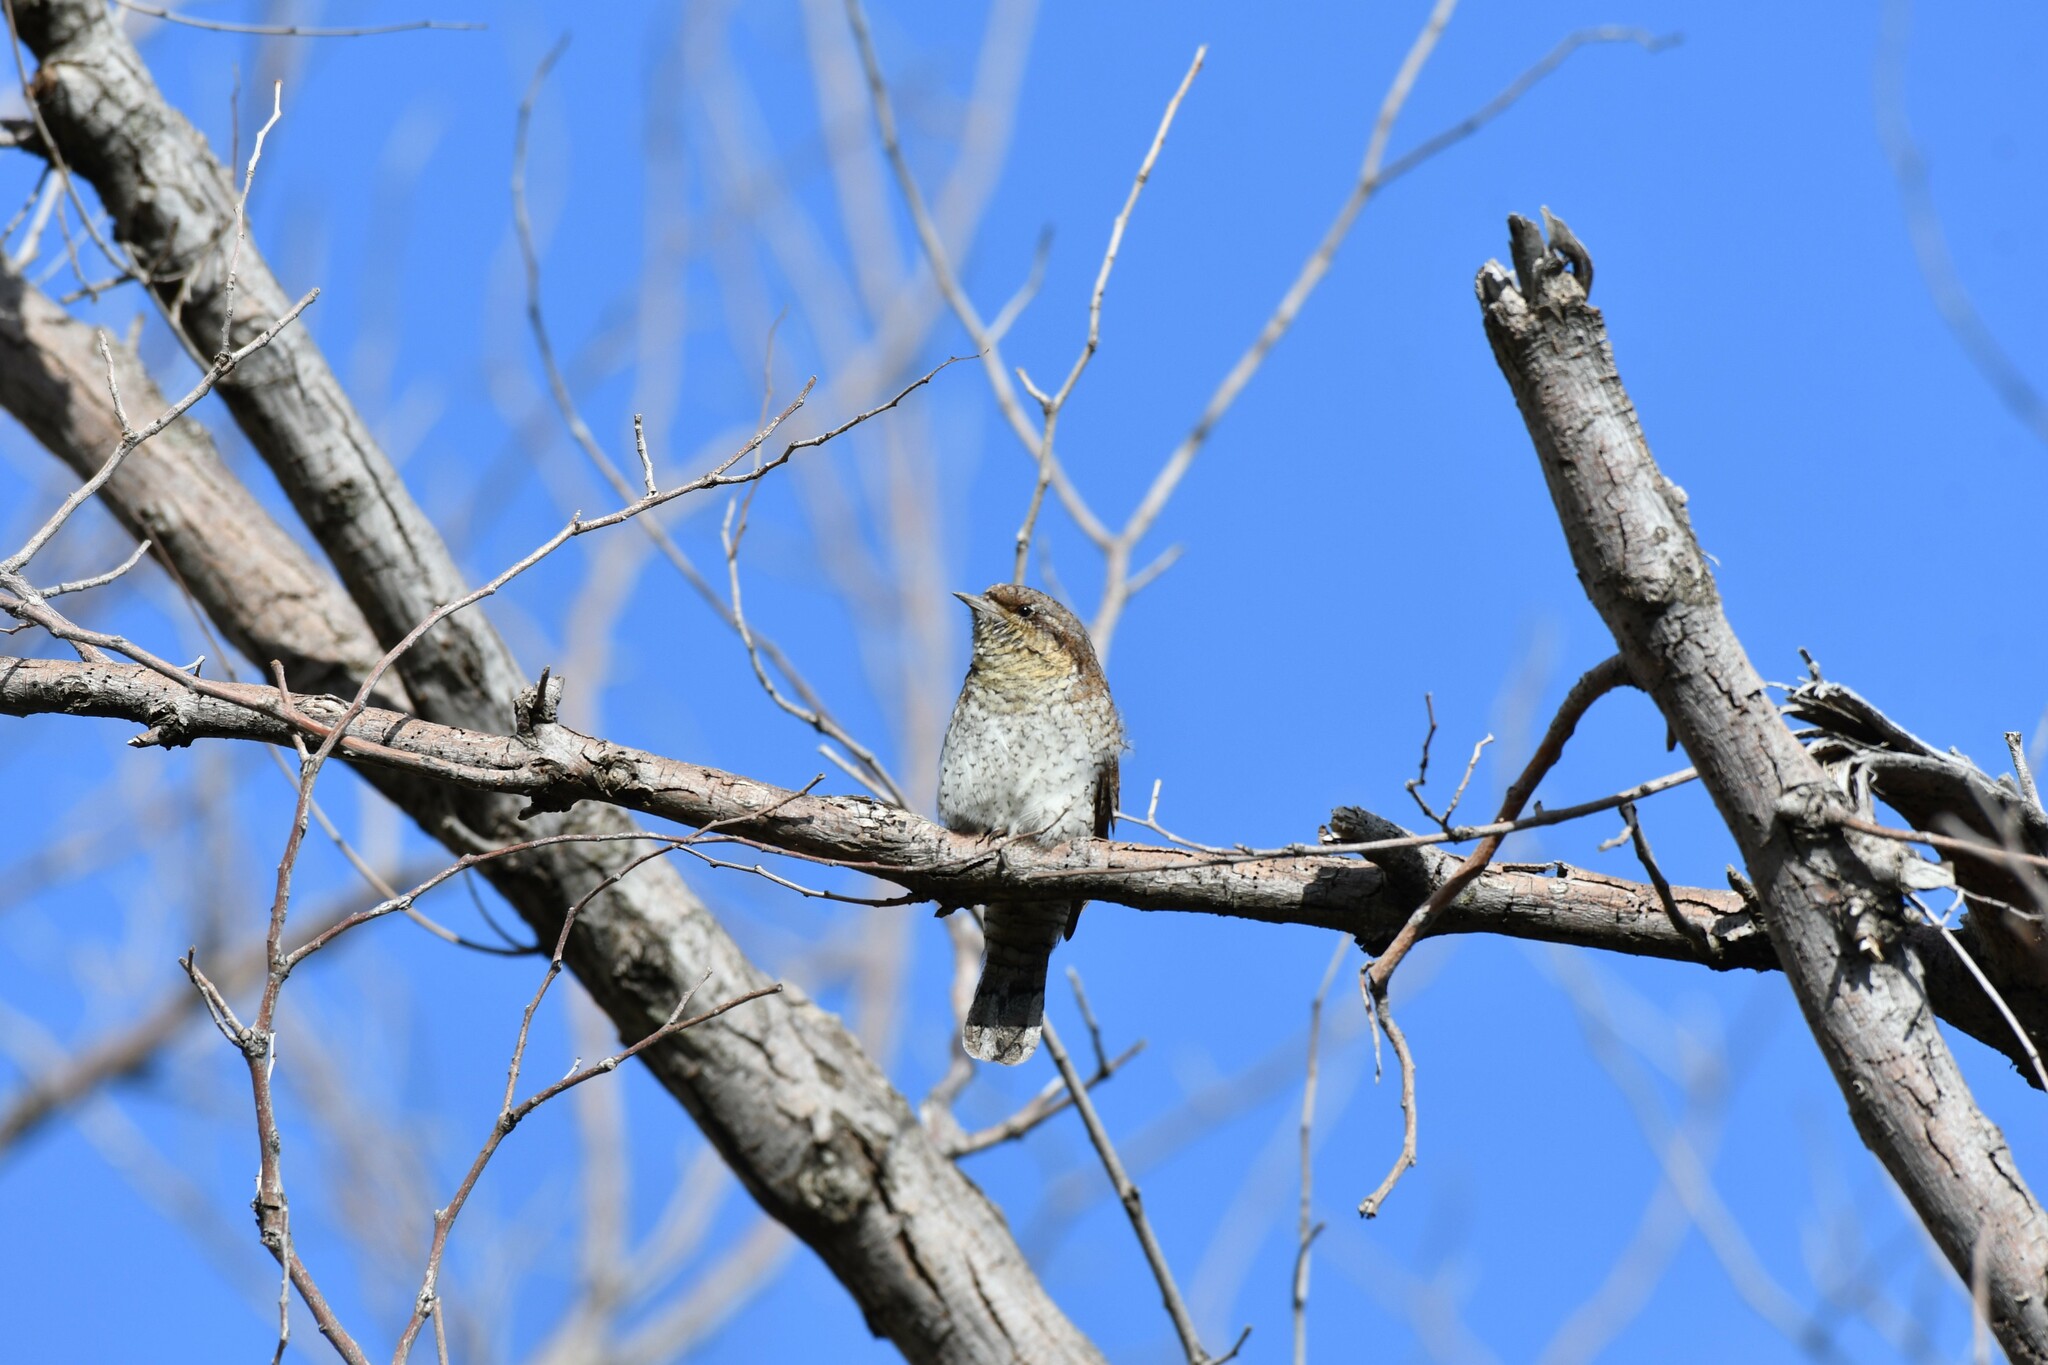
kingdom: Animalia
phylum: Chordata
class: Aves
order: Piciformes
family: Picidae
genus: Jynx
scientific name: Jynx torquilla
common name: Eurasian wryneck
